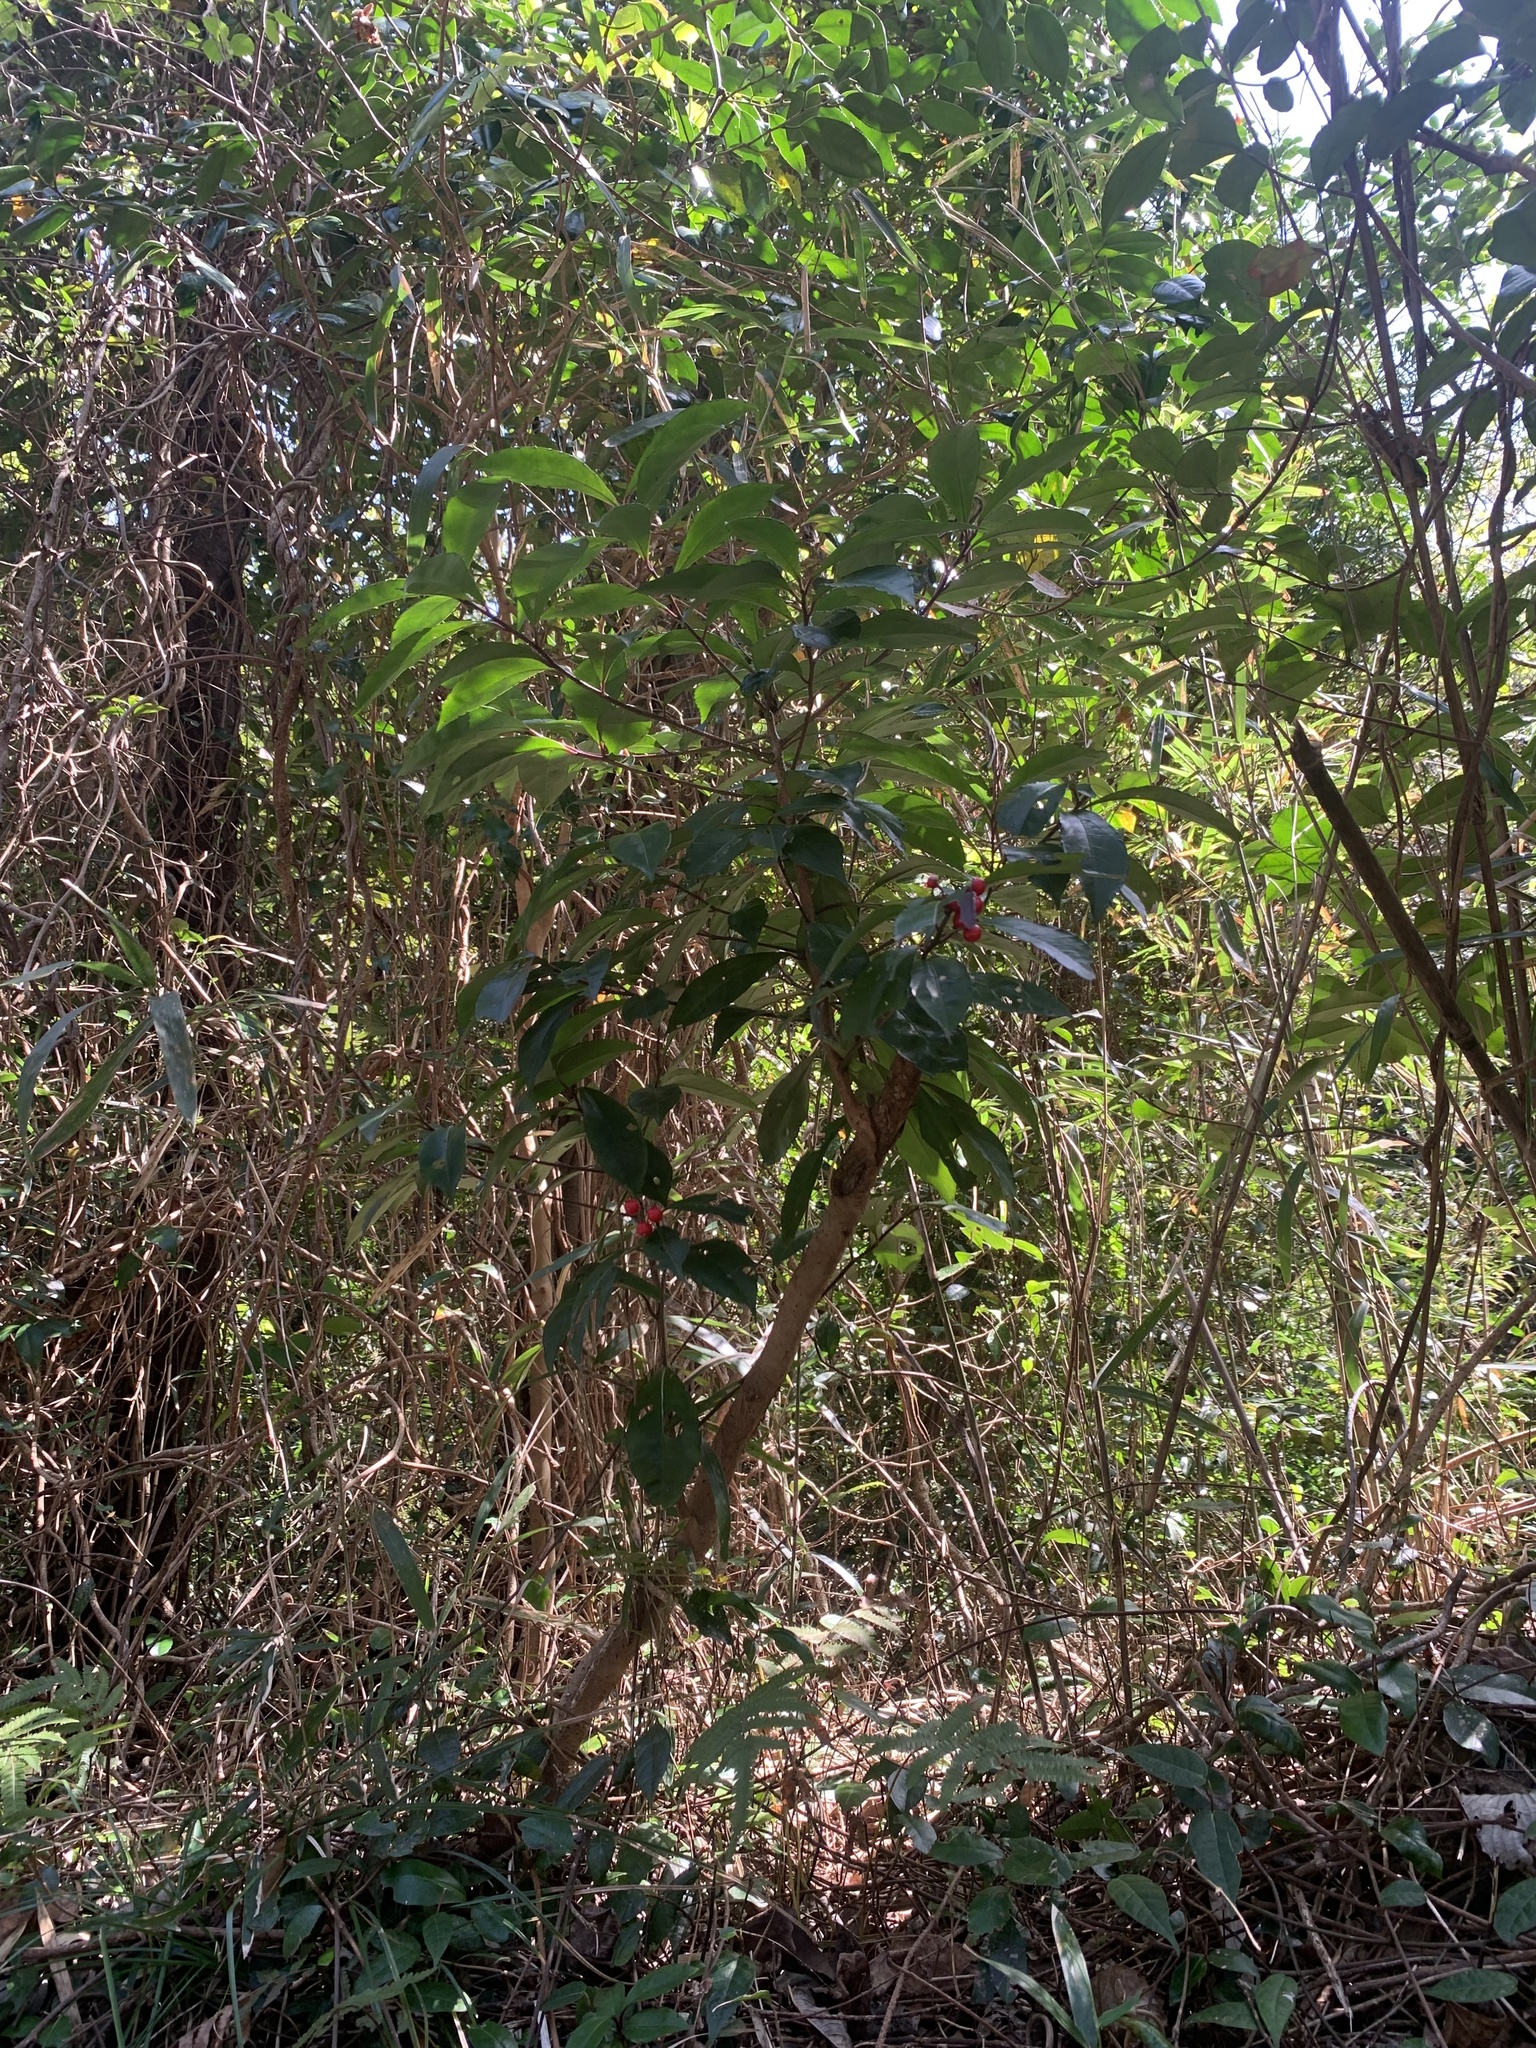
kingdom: Plantae
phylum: Tracheophyta
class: Magnoliopsida
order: Ericales
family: Primulaceae
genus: Ardisia
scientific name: Ardisia crenata
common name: Hen's eyes
